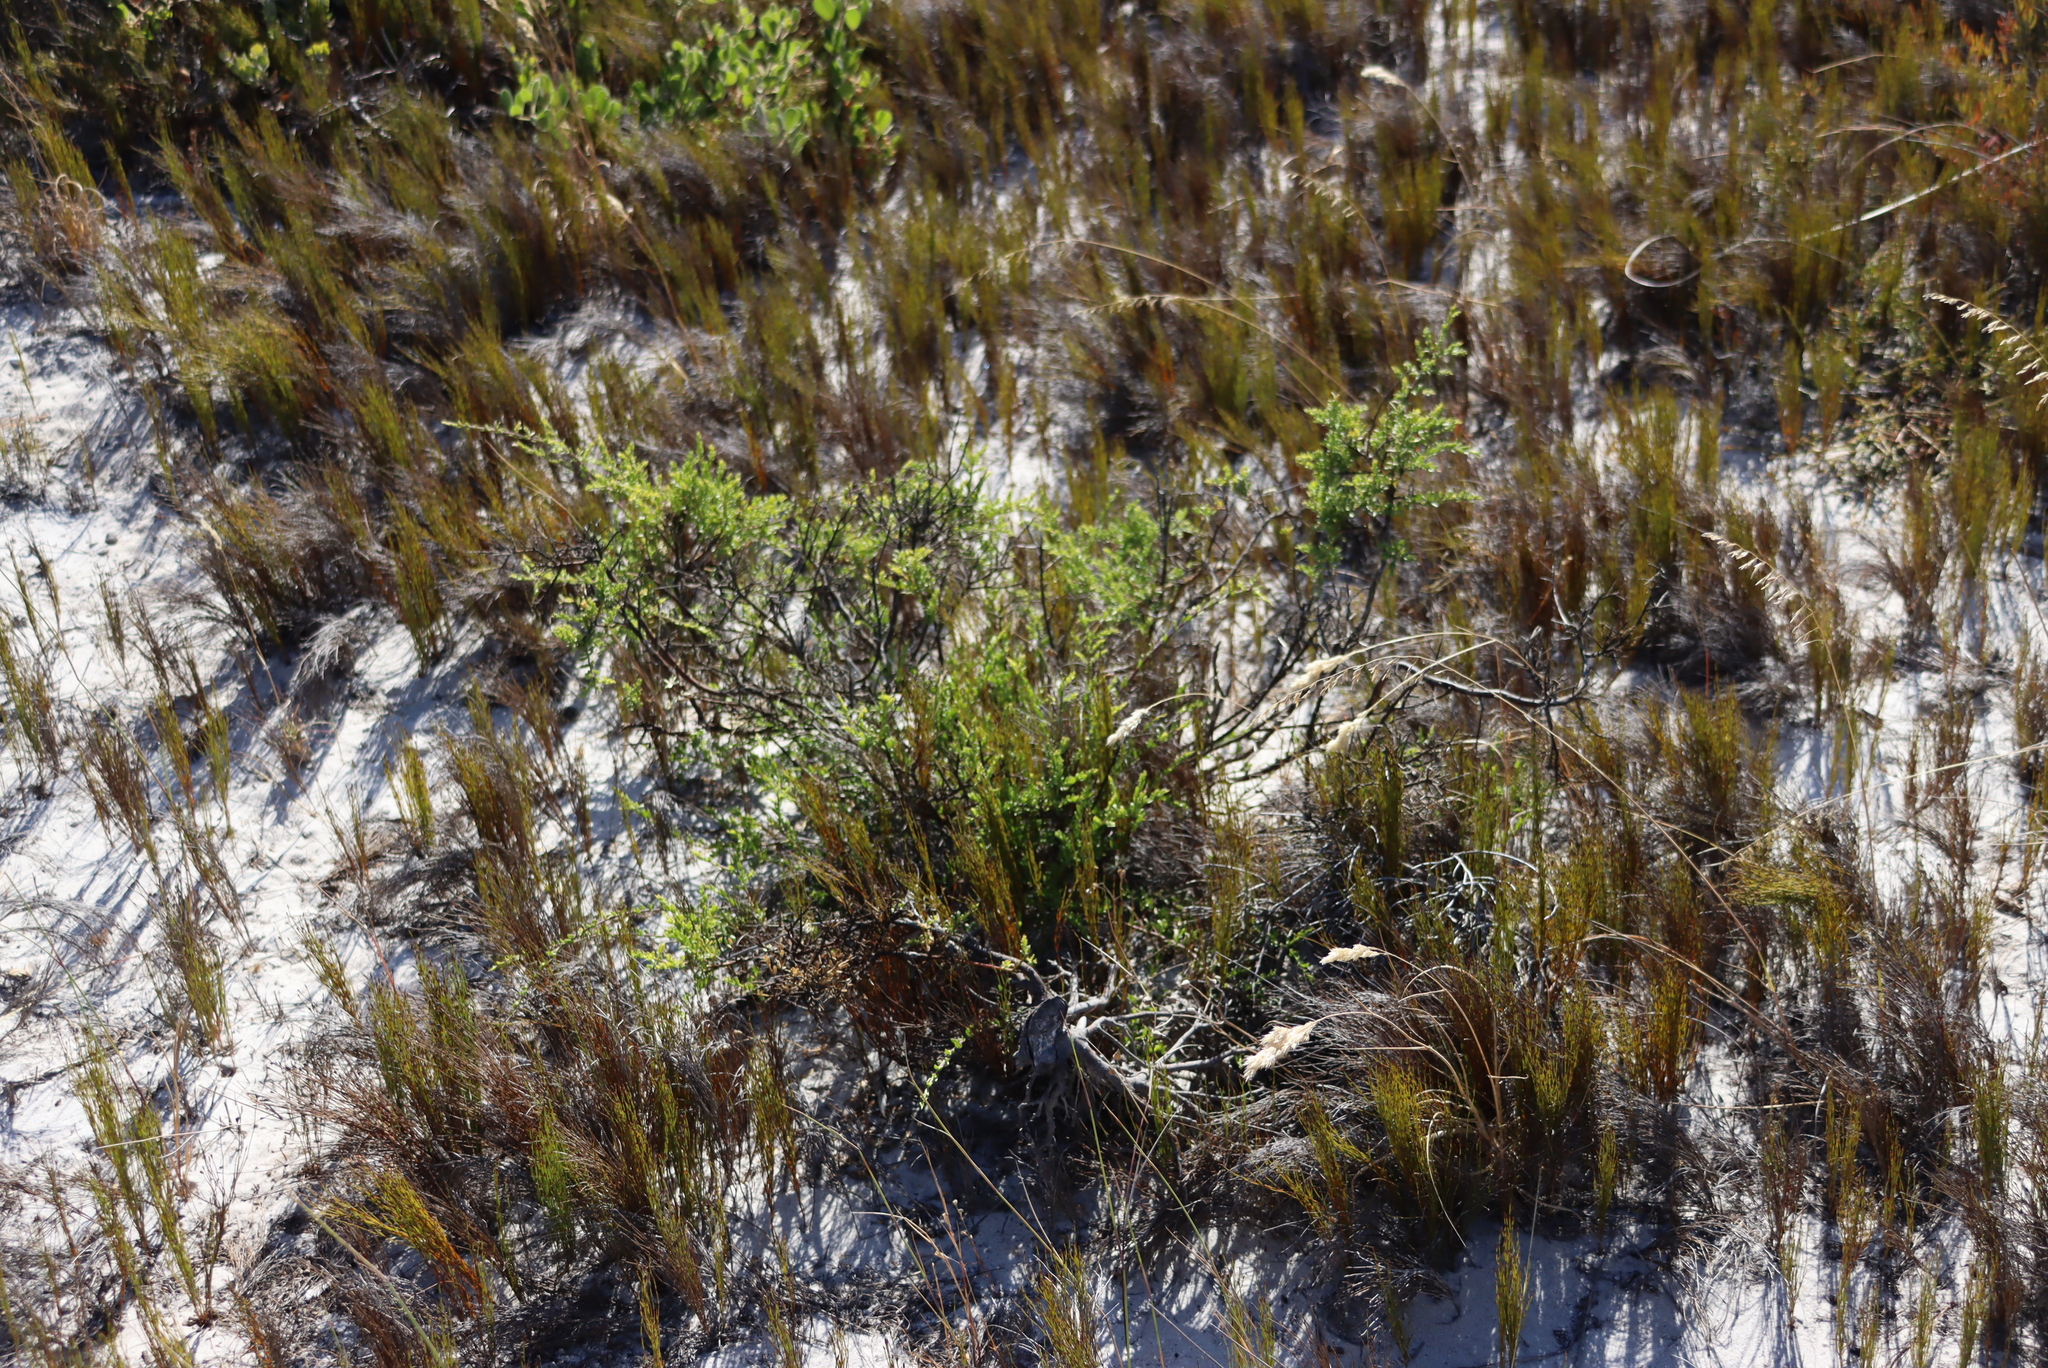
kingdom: Plantae
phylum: Tracheophyta
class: Magnoliopsida
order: Fabales
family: Polygalaceae
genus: Muraltia
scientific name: Muraltia spinosa
